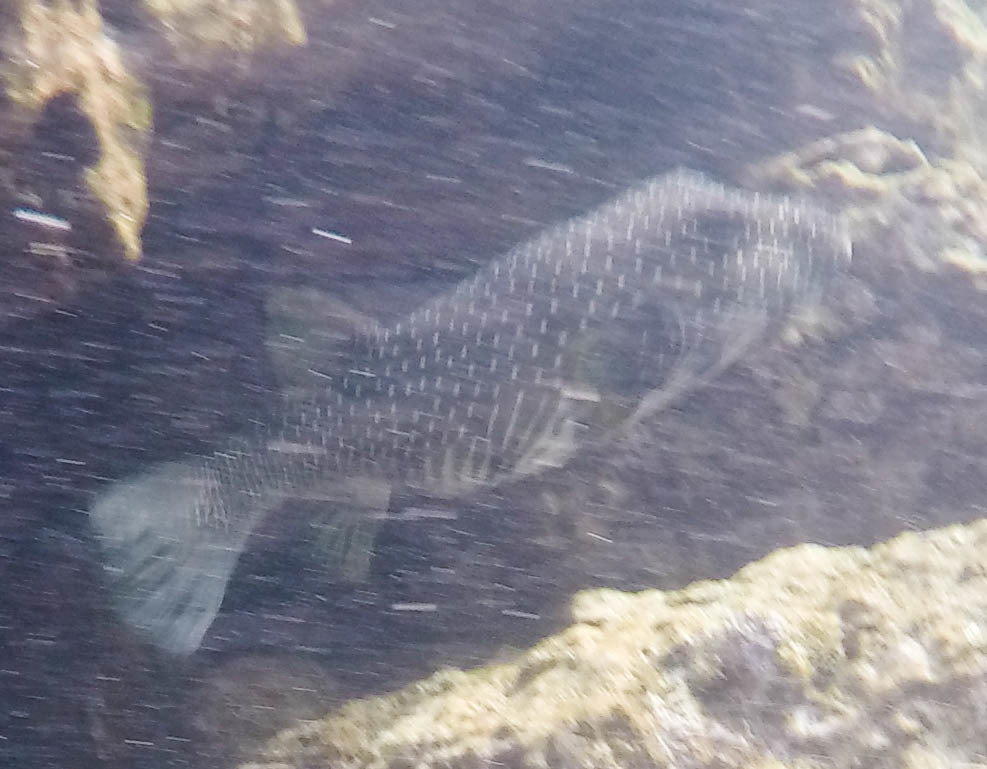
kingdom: Animalia
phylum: Chordata
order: Tetraodontiformes
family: Tetraodontidae
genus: Arothron
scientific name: Arothron hispidus
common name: Stripebelly puffer
